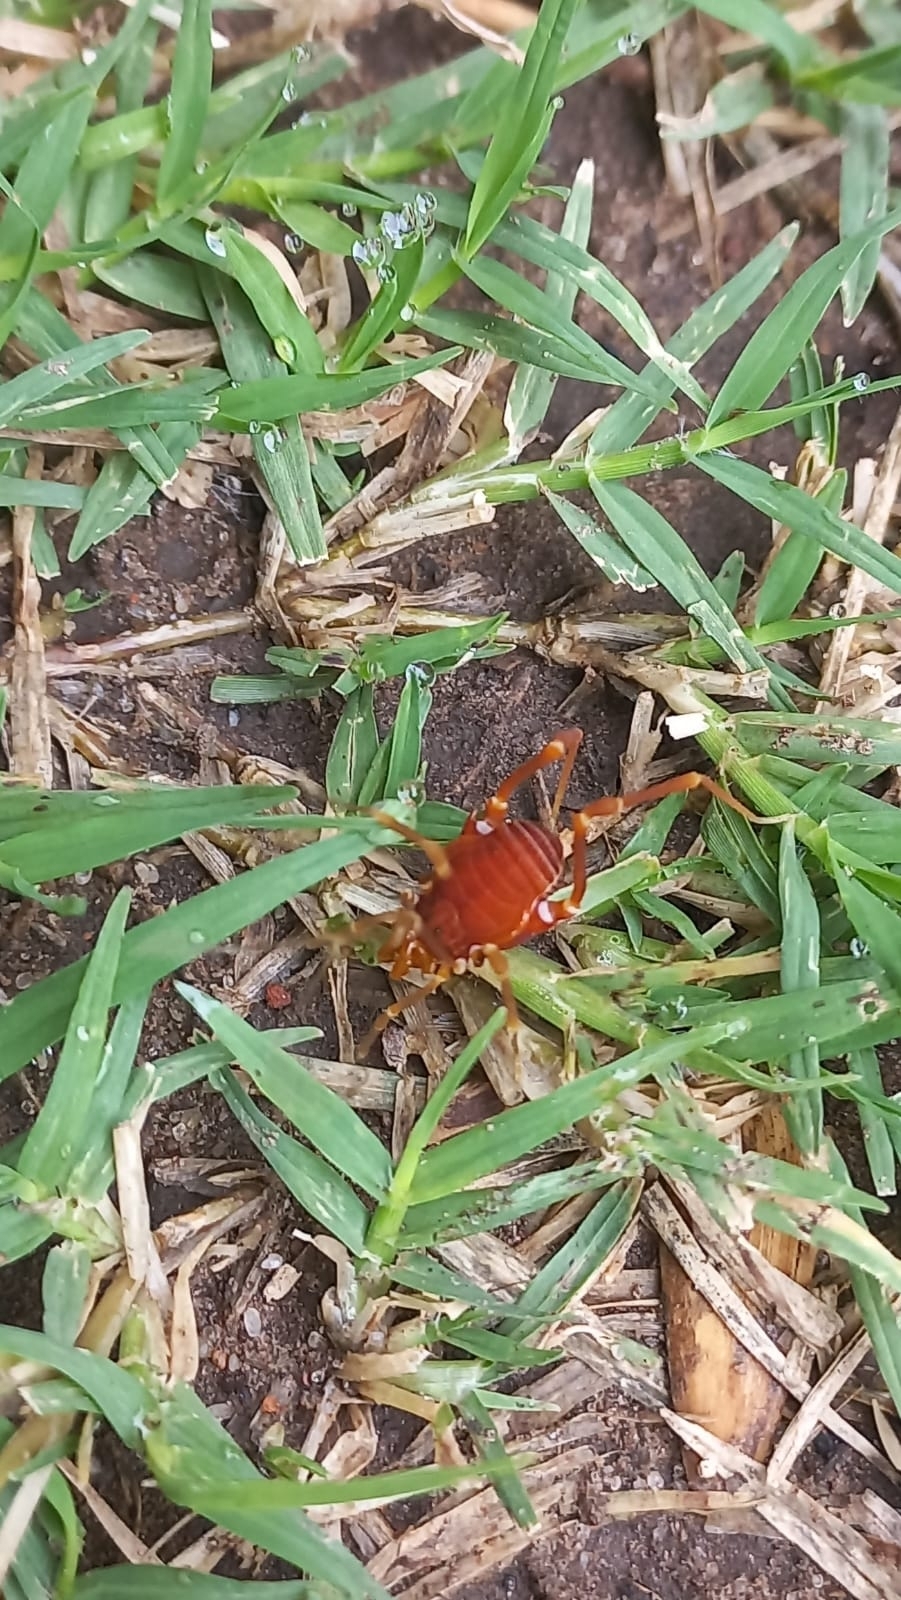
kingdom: Animalia
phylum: Arthropoda
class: Arachnida
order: Opiliones
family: Gonyleptidae
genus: Pachyloides
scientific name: Pachyloides thorellii
